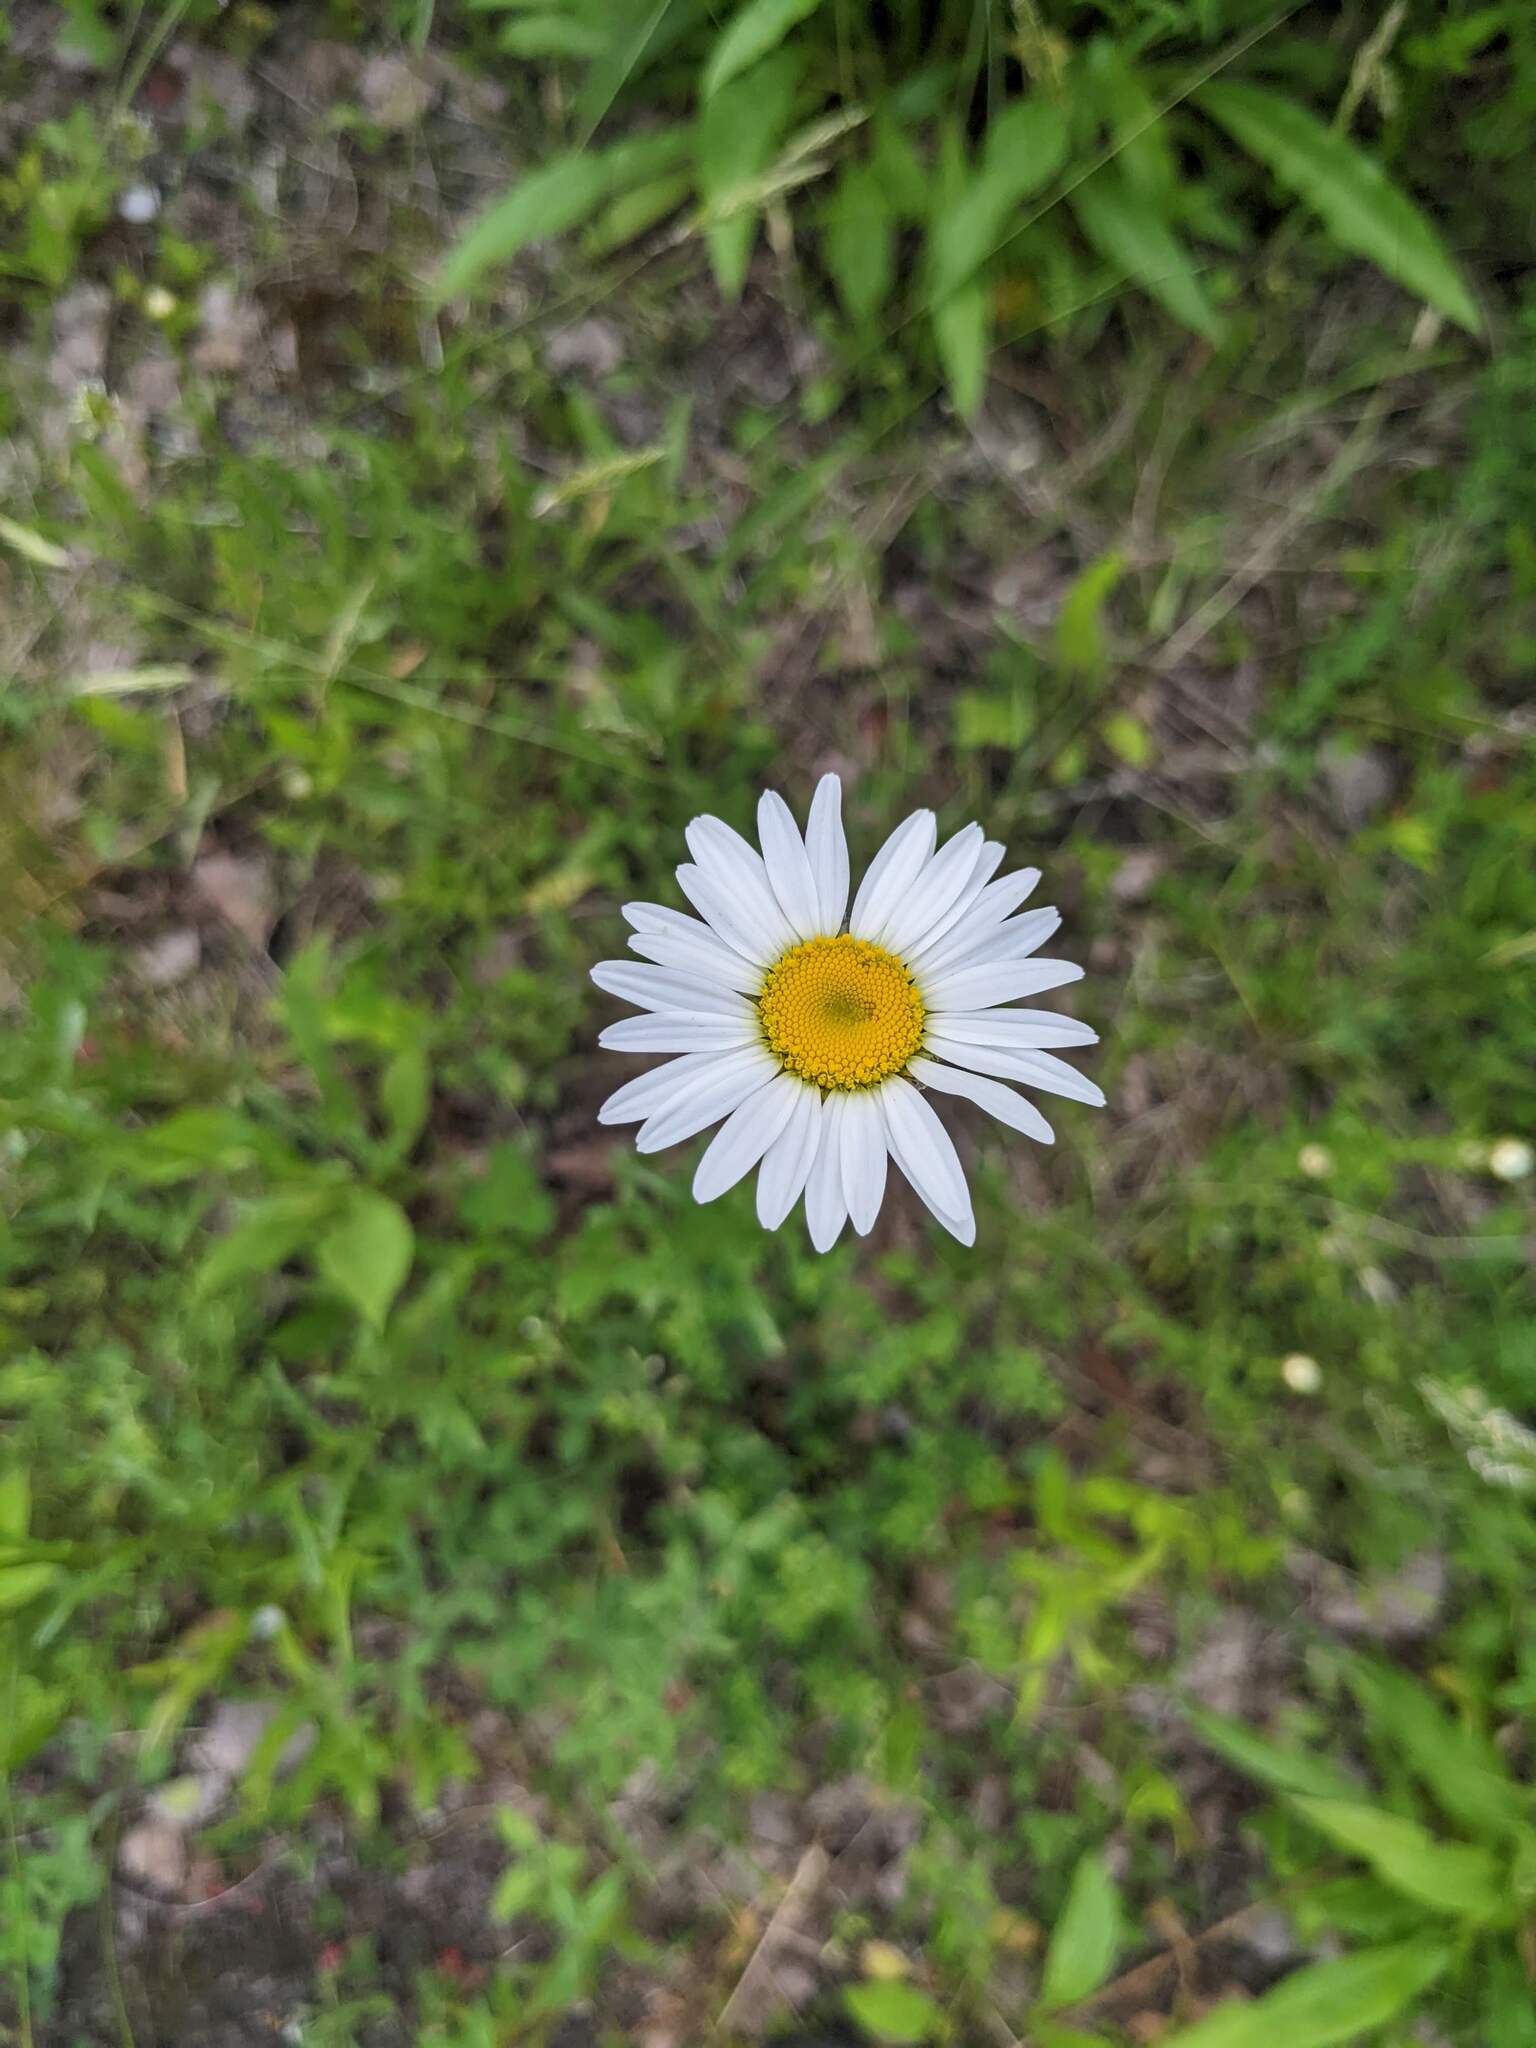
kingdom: Plantae
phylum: Tracheophyta
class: Magnoliopsida
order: Asterales
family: Asteraceae
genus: Leucanthemum
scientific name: Leucanthemum vulgare
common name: Oxeye daisy
